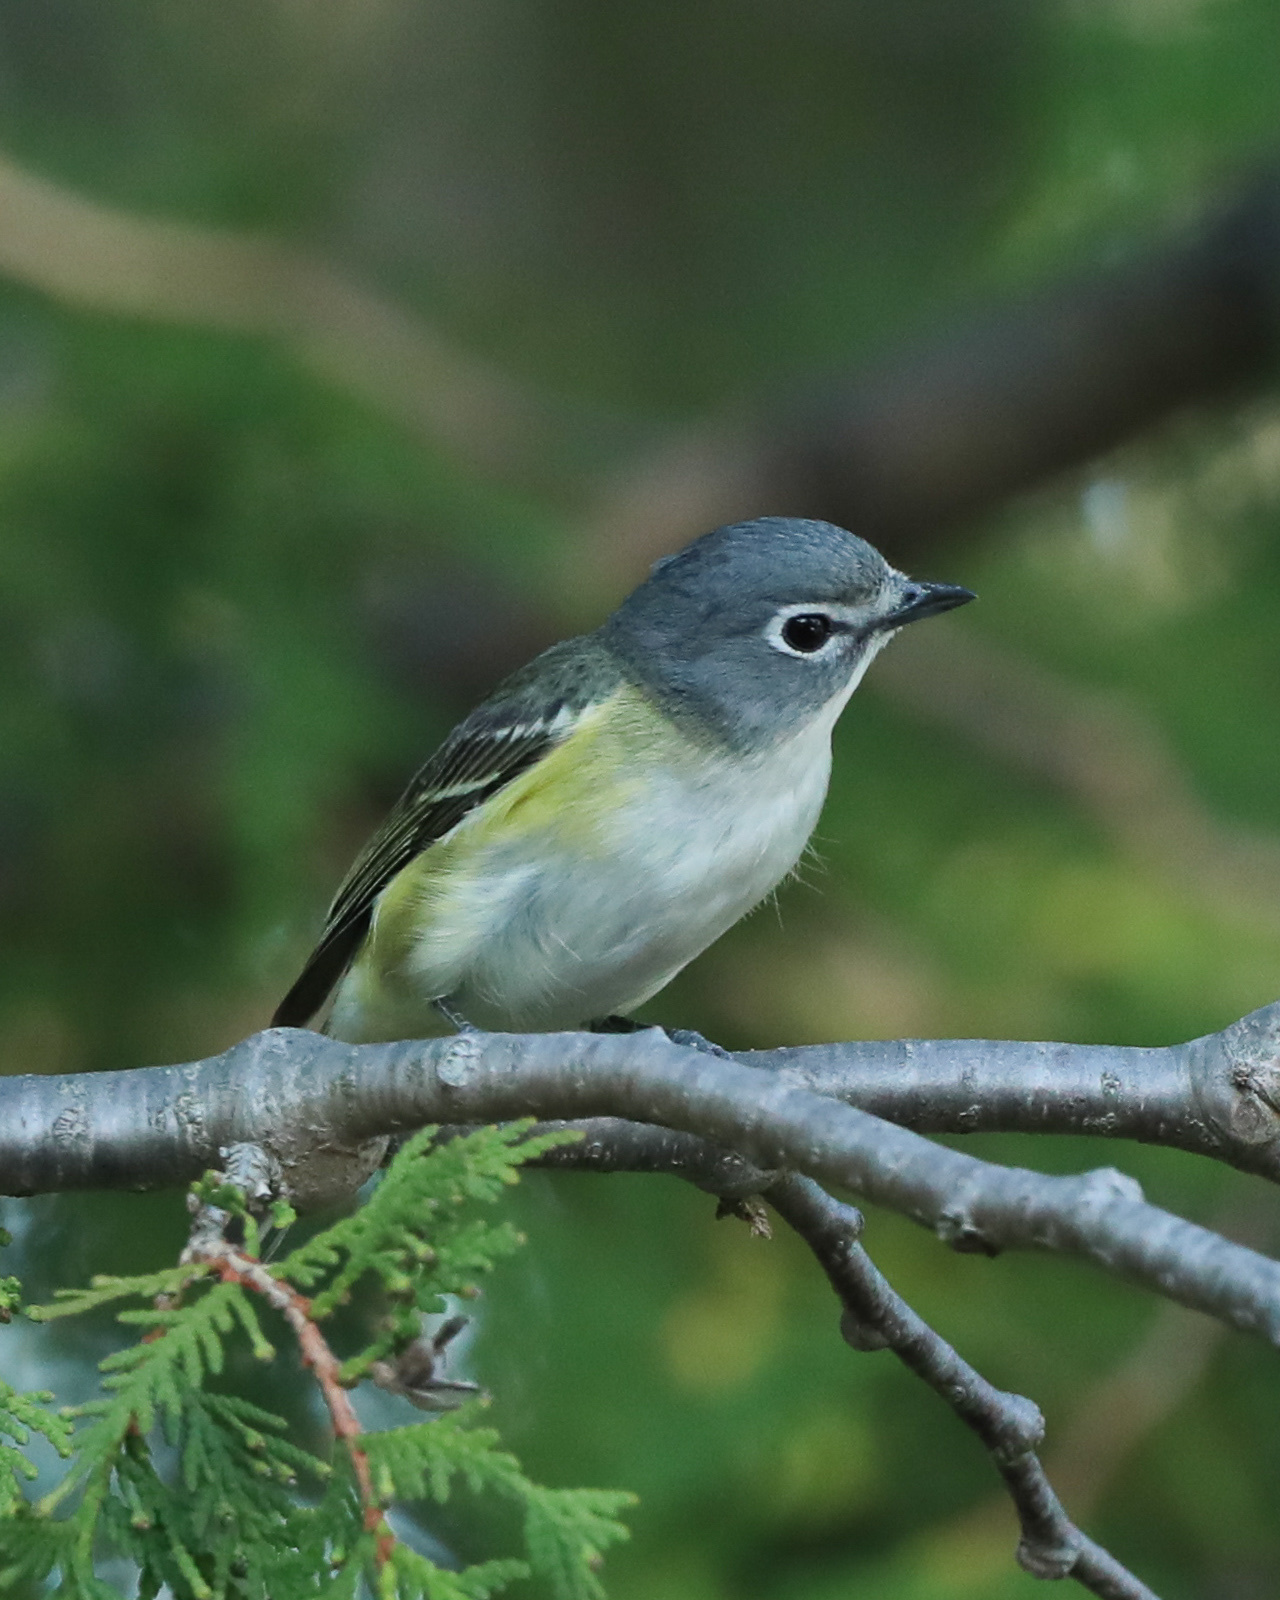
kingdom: Animalia
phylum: Chordata
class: Aves
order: Passeriformes
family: Vireonidae
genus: Vireo
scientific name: Vireo solitarius
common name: Blue-headed vireo
